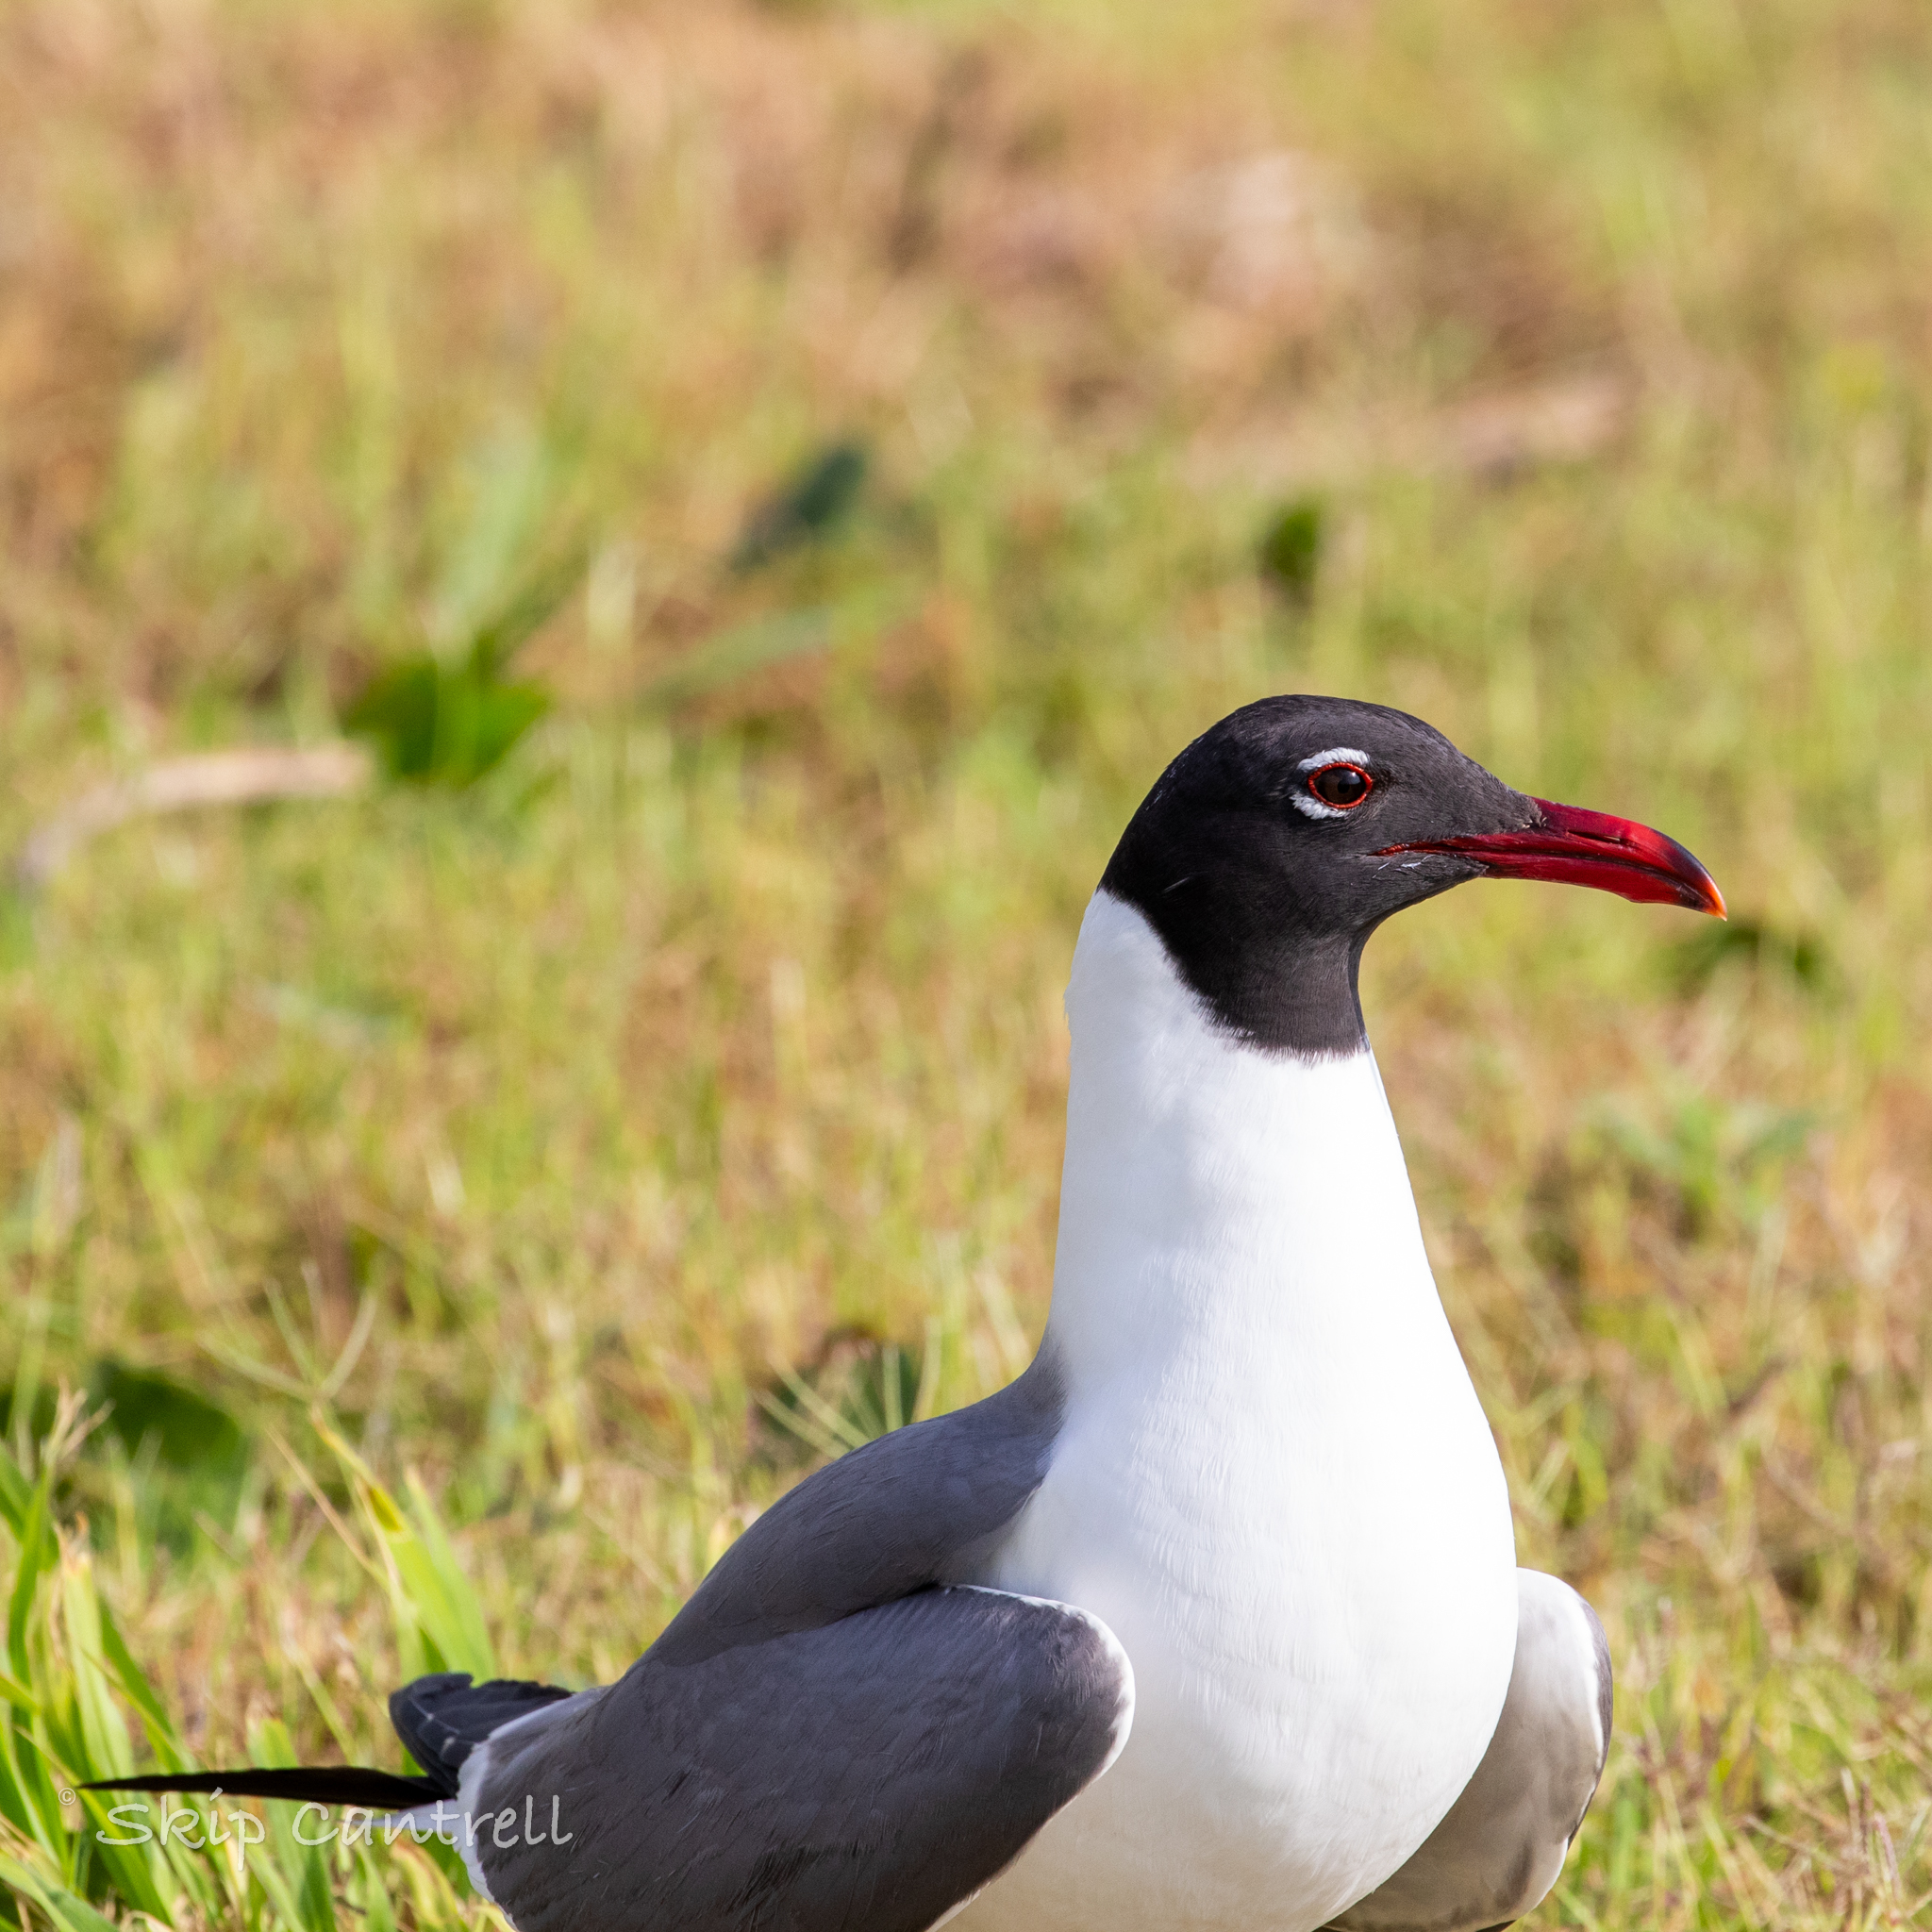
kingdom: Animalia
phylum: Chordata
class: Aves
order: Charadriiformes
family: Laridae
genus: Leucophaeus
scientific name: Leucophaeus atricilla
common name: Laughing gull
